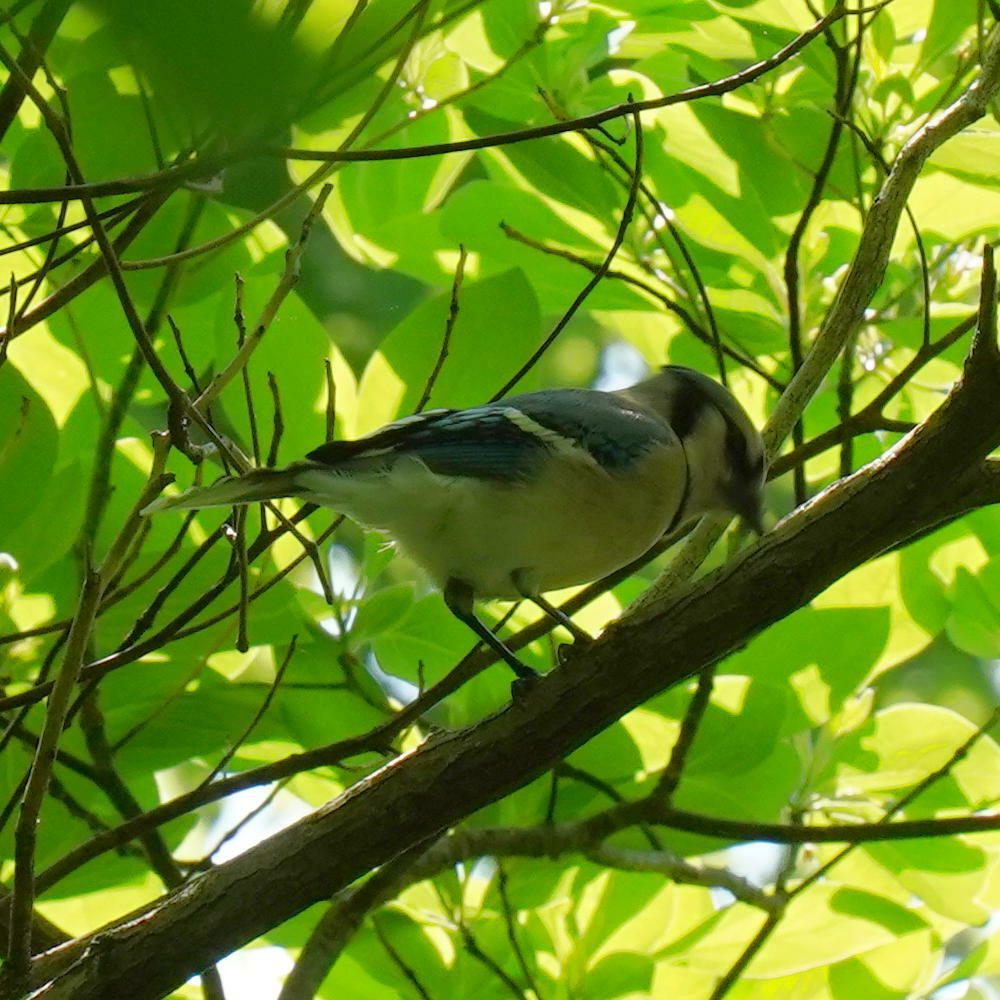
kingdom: Animalia
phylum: Chordata
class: Aves
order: Passeriformes
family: Corvidae
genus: Cyanocitta
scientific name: Cyanocitta cristata
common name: Blue jay
